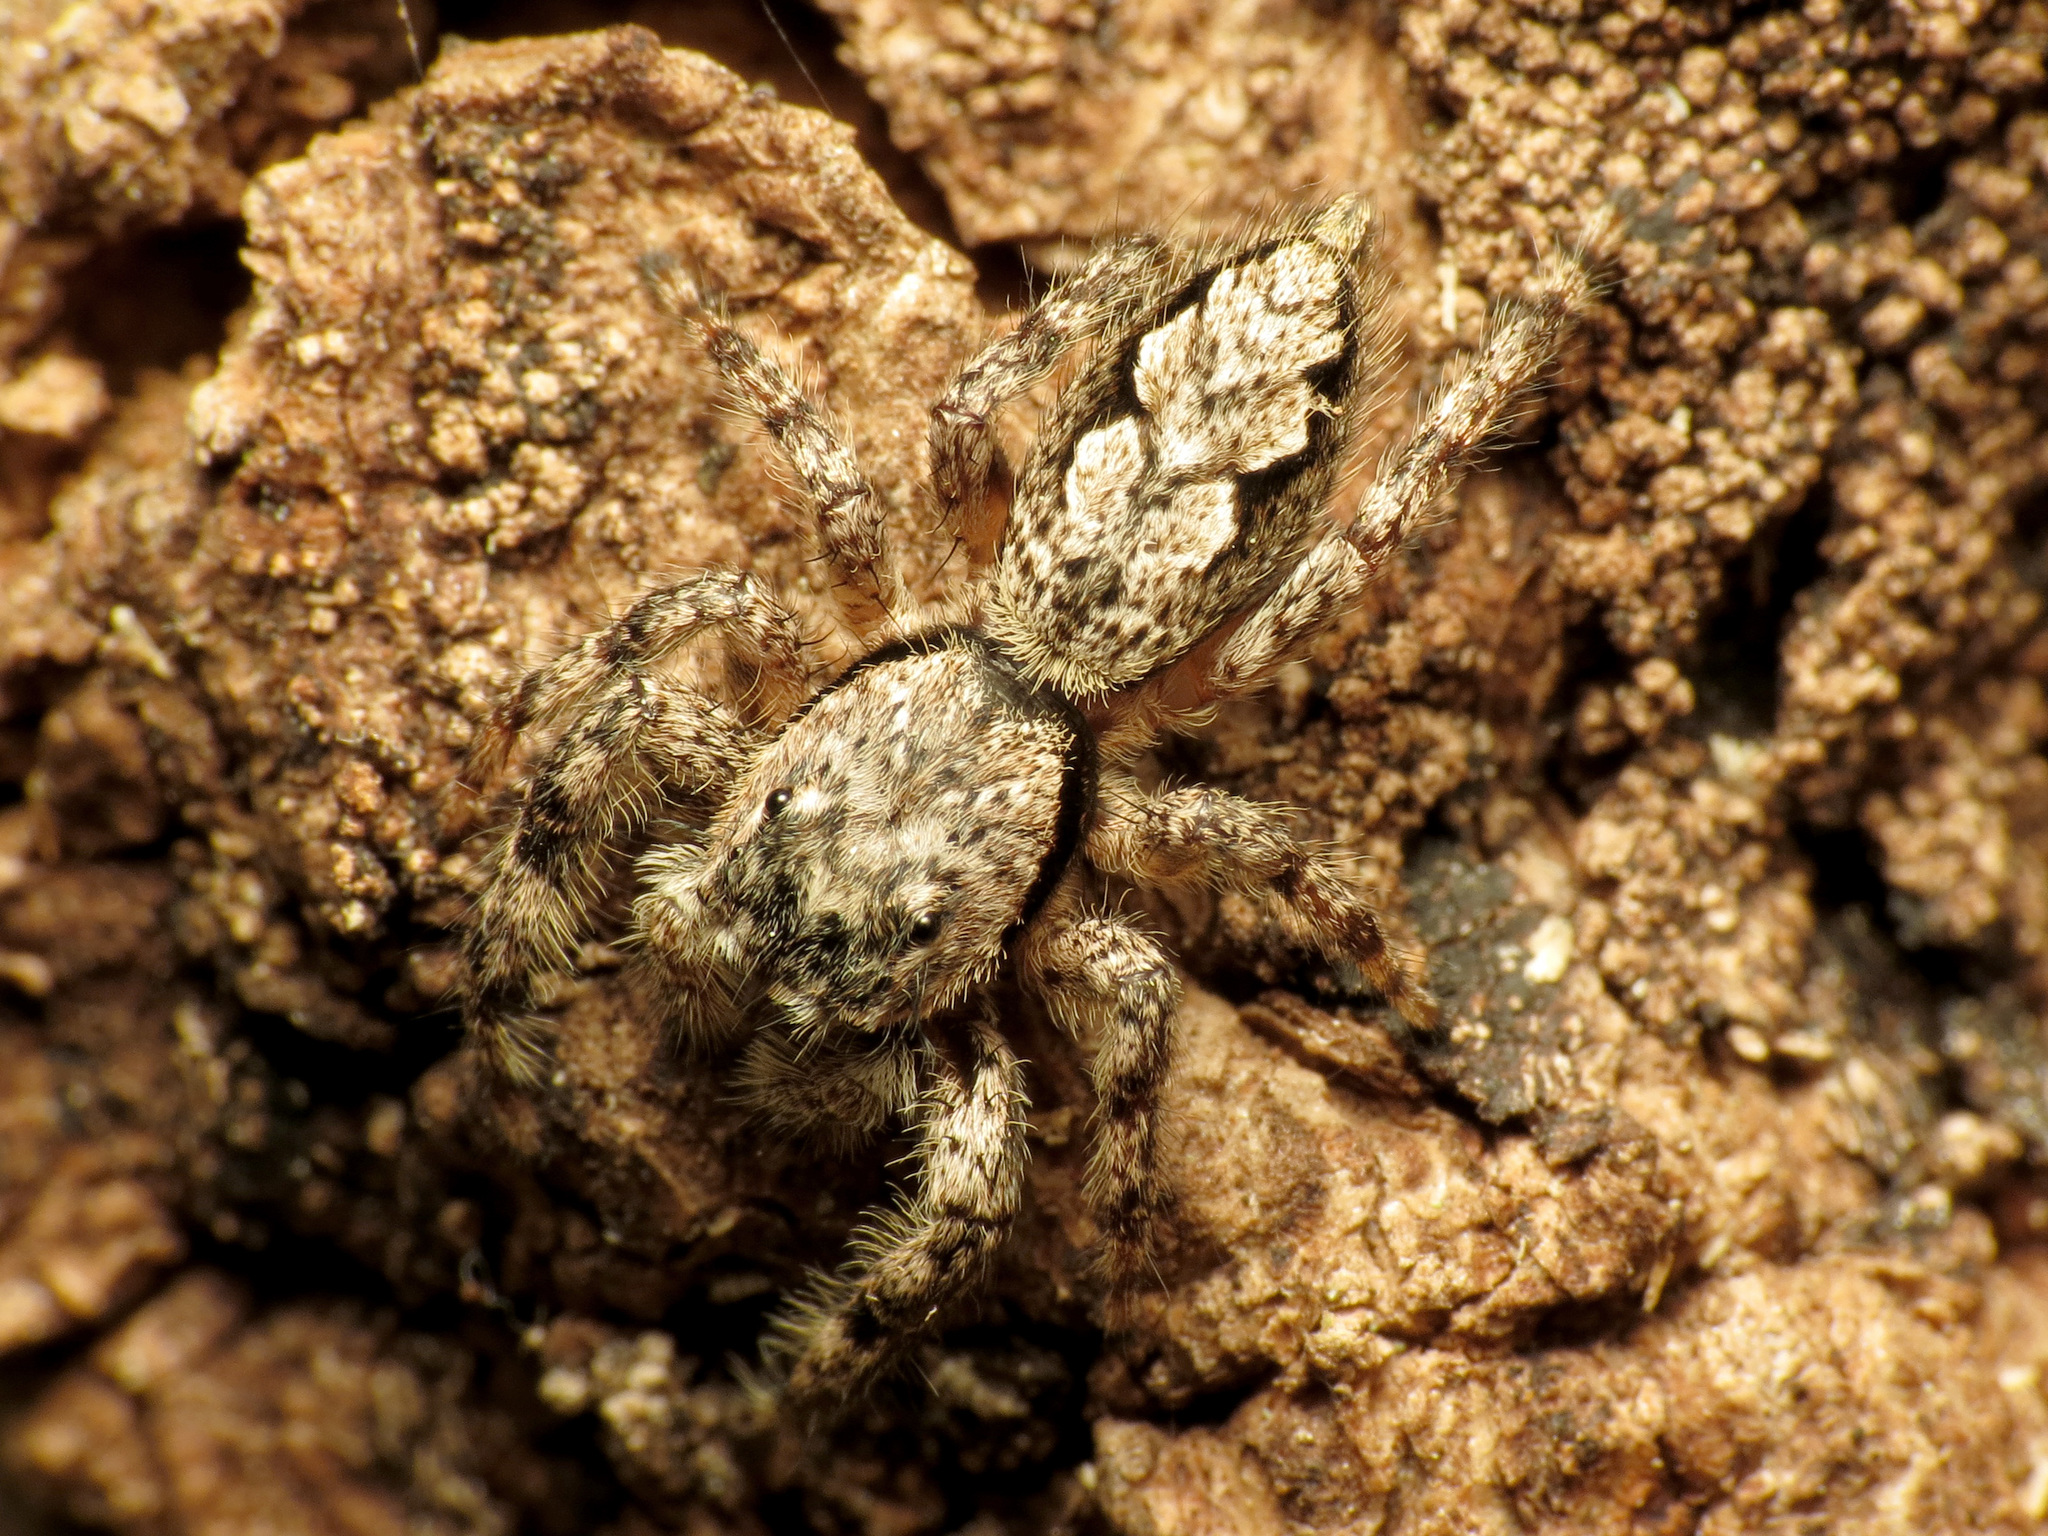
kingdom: Animalia
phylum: Arthropoda
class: Arachnida
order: Araneae
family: Salticidae
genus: Platycryptus
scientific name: Platycryptus undatus
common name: Tan jumping spider
